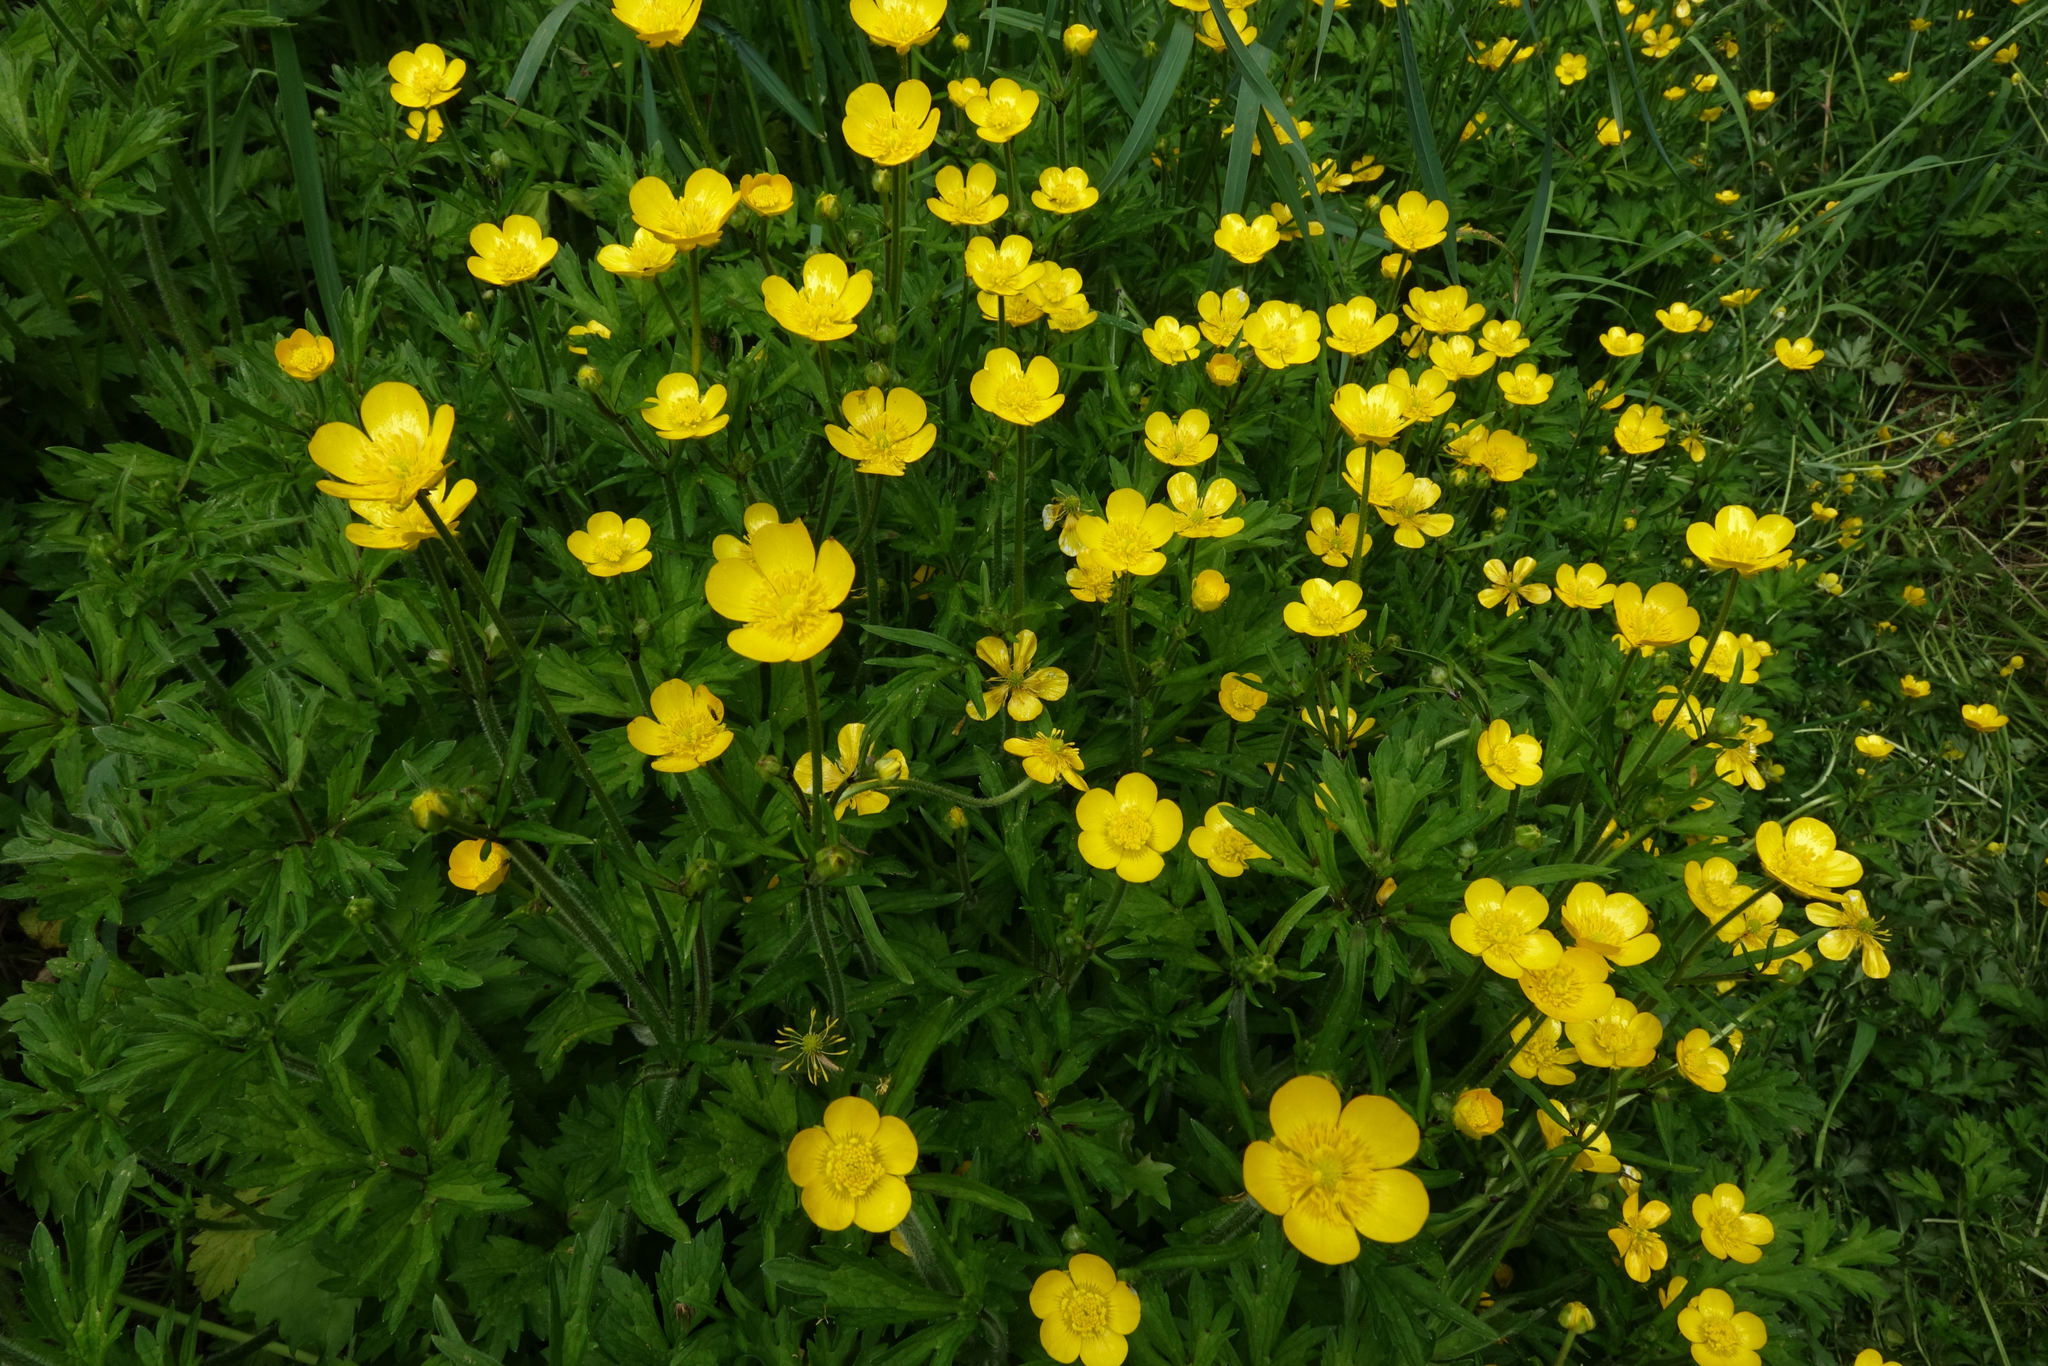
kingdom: Plantae
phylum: Tracheophyta
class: Magnoliopsida
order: Ranunculales
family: Ranunculaceae
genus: Ranunculus
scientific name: Ranunculus repens
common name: Creeping buttercup
